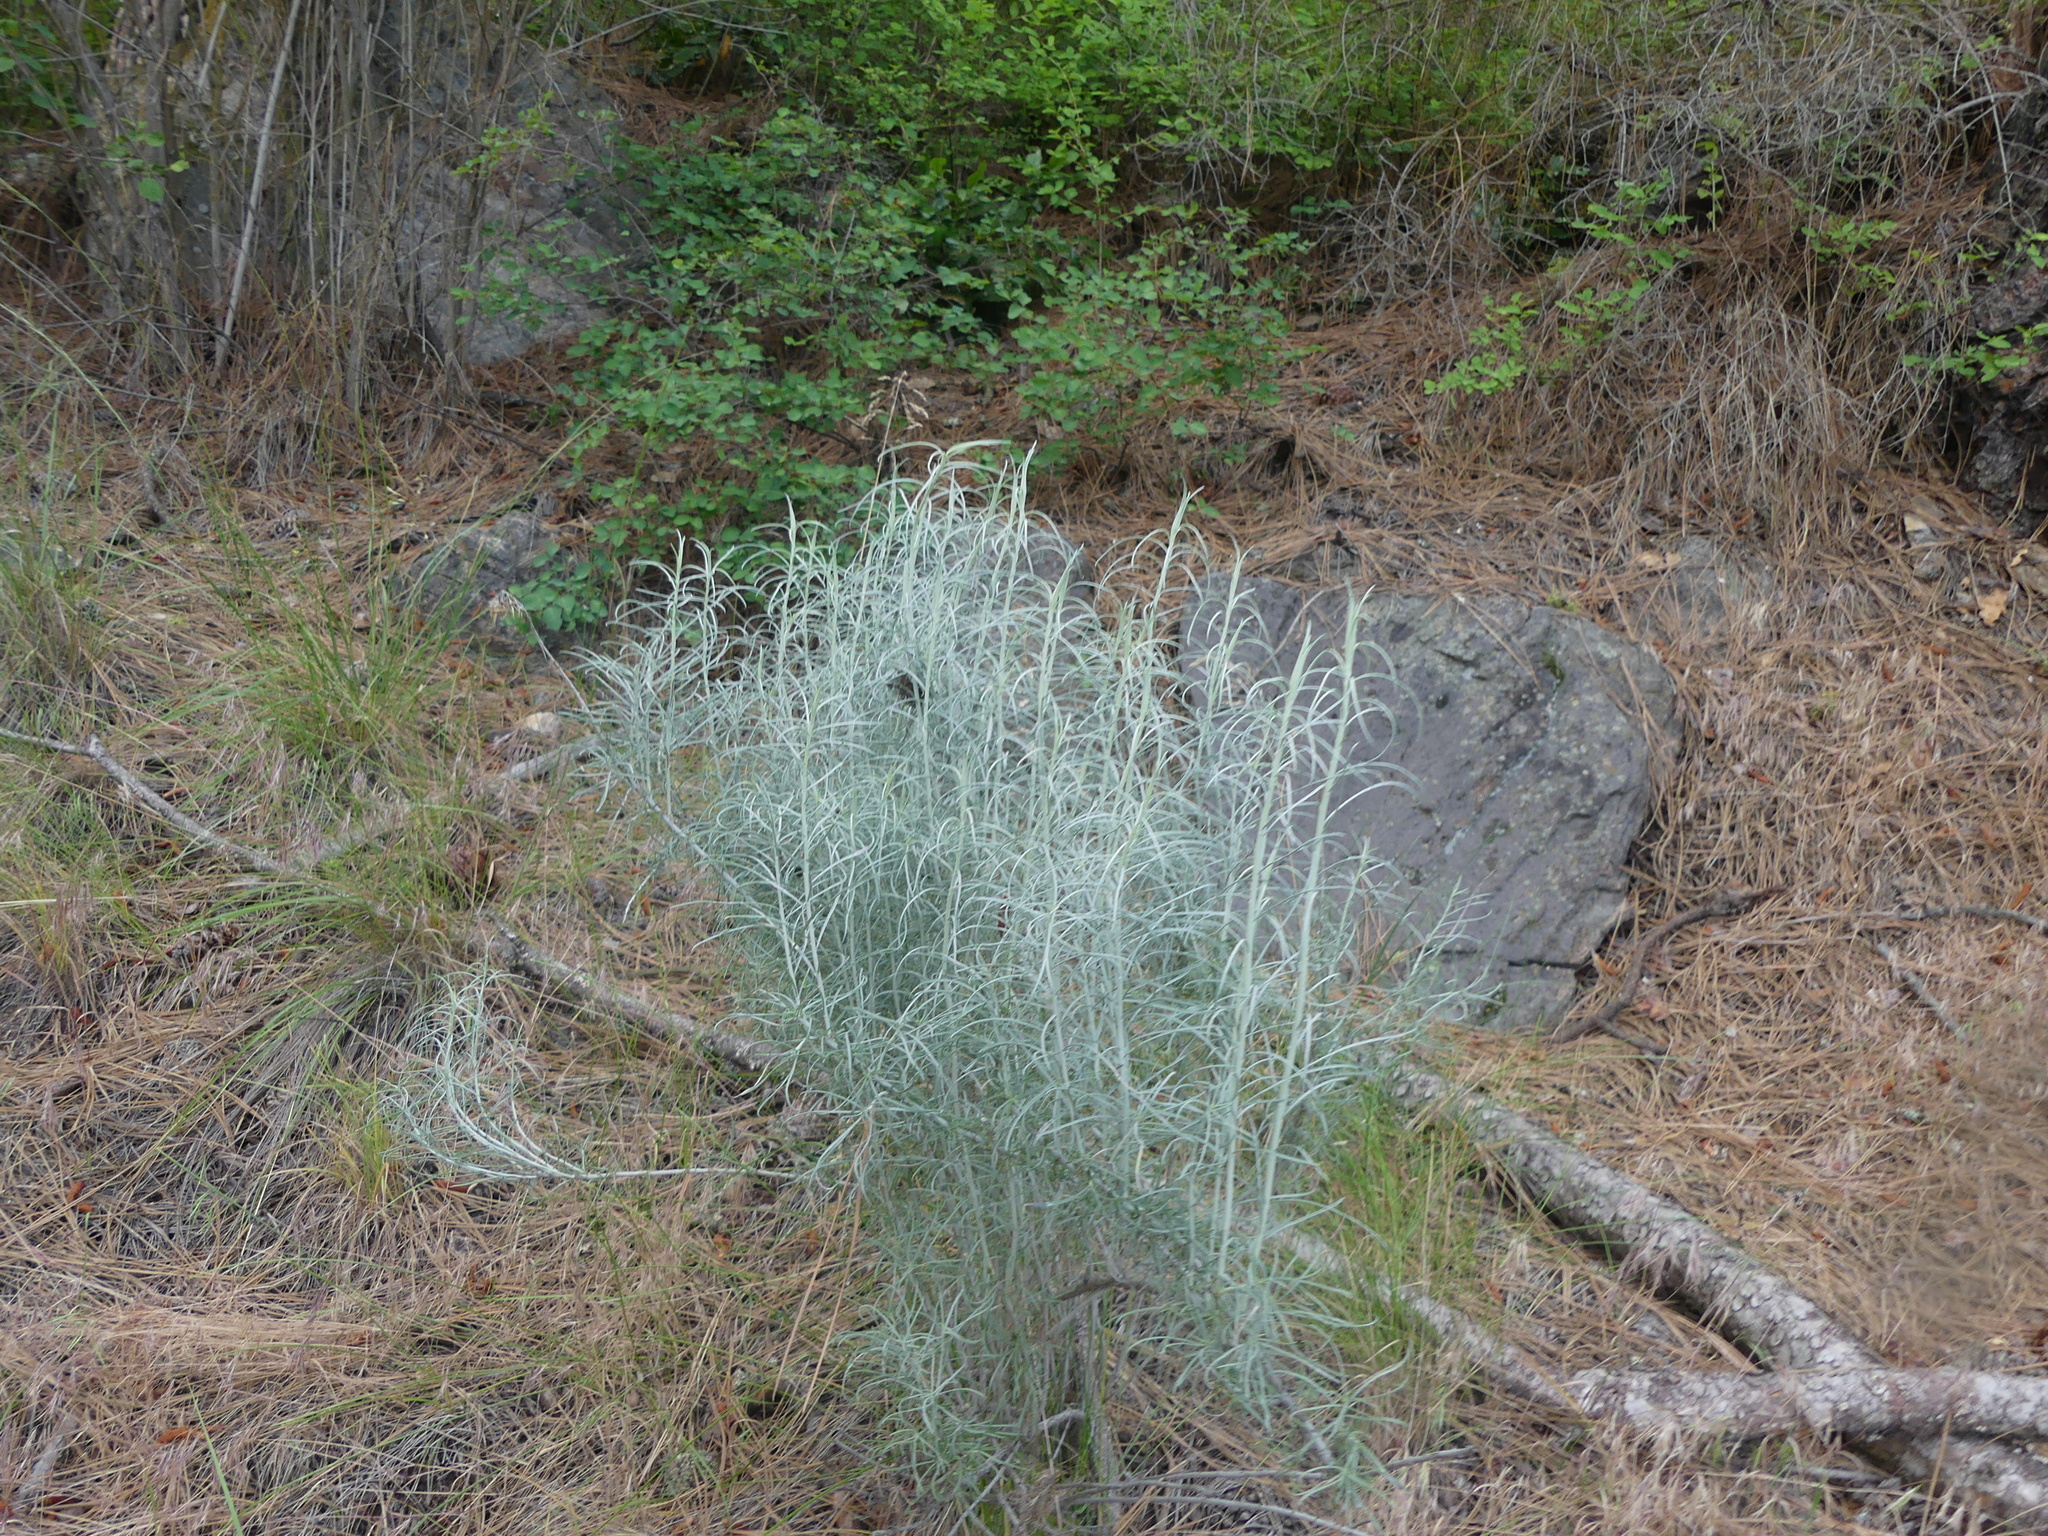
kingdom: Plantae
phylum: Tracheophyta
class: Magnoliopsida
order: Asterales
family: Asteraceae
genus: Ericameria
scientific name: Ericameria nauseosa
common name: Rubber rabbitbrush
